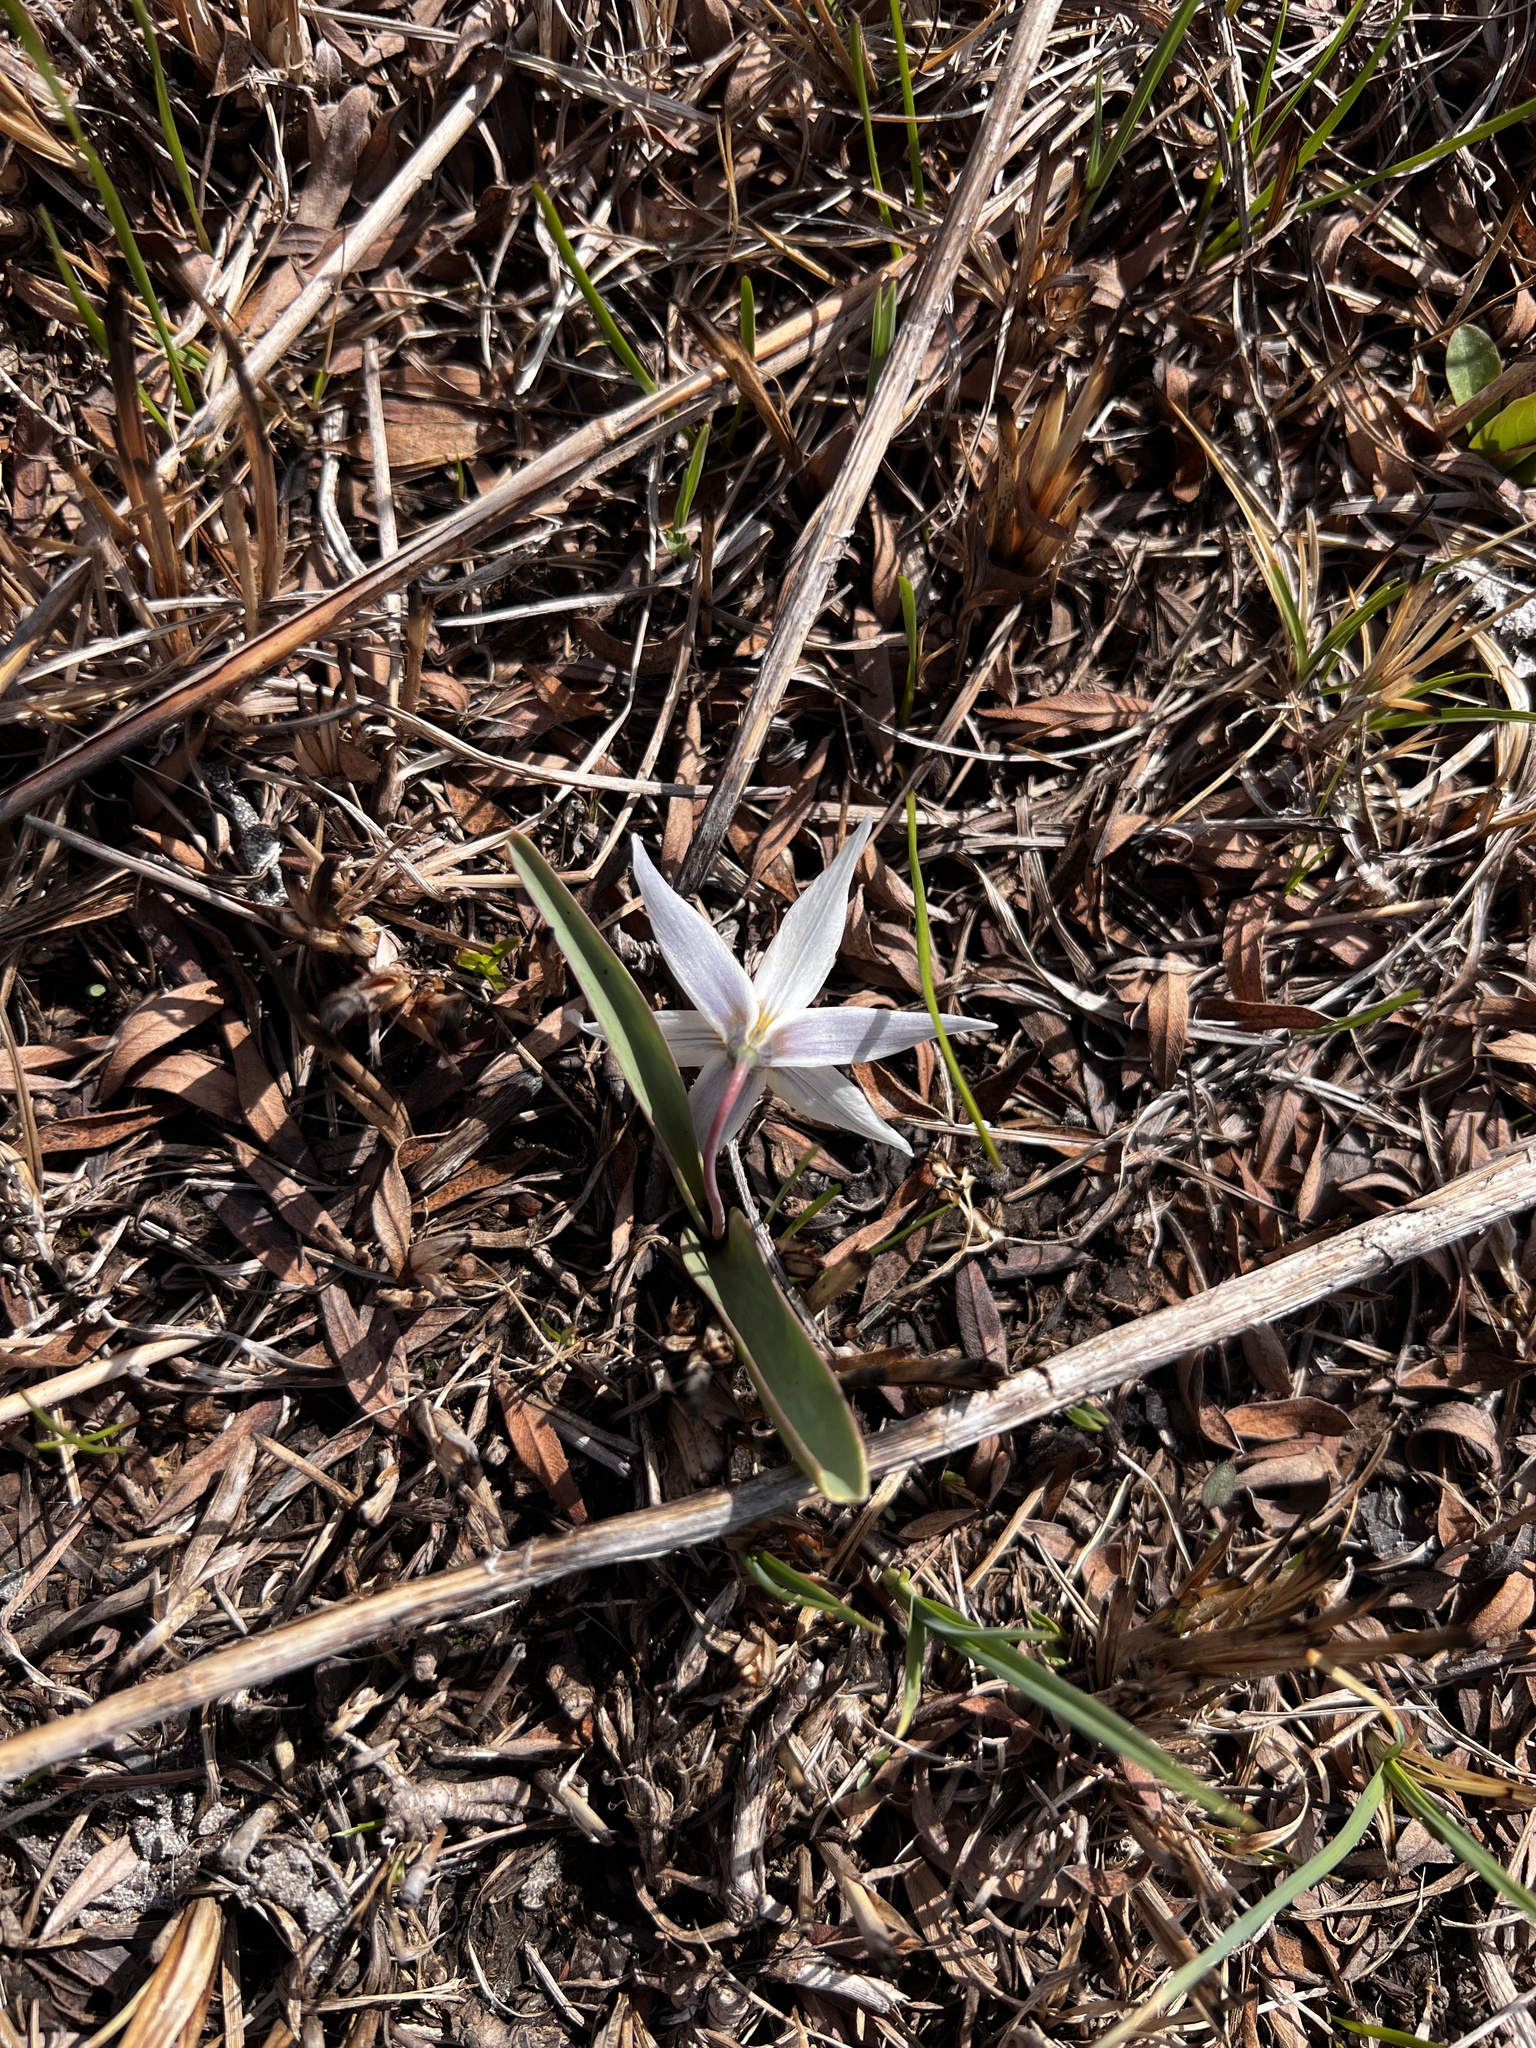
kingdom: Plantae
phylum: Tracheophyta
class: Liliopsida
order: Liliales
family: Liliaceae
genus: Erythronium
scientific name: Erythronium mesochoreum
